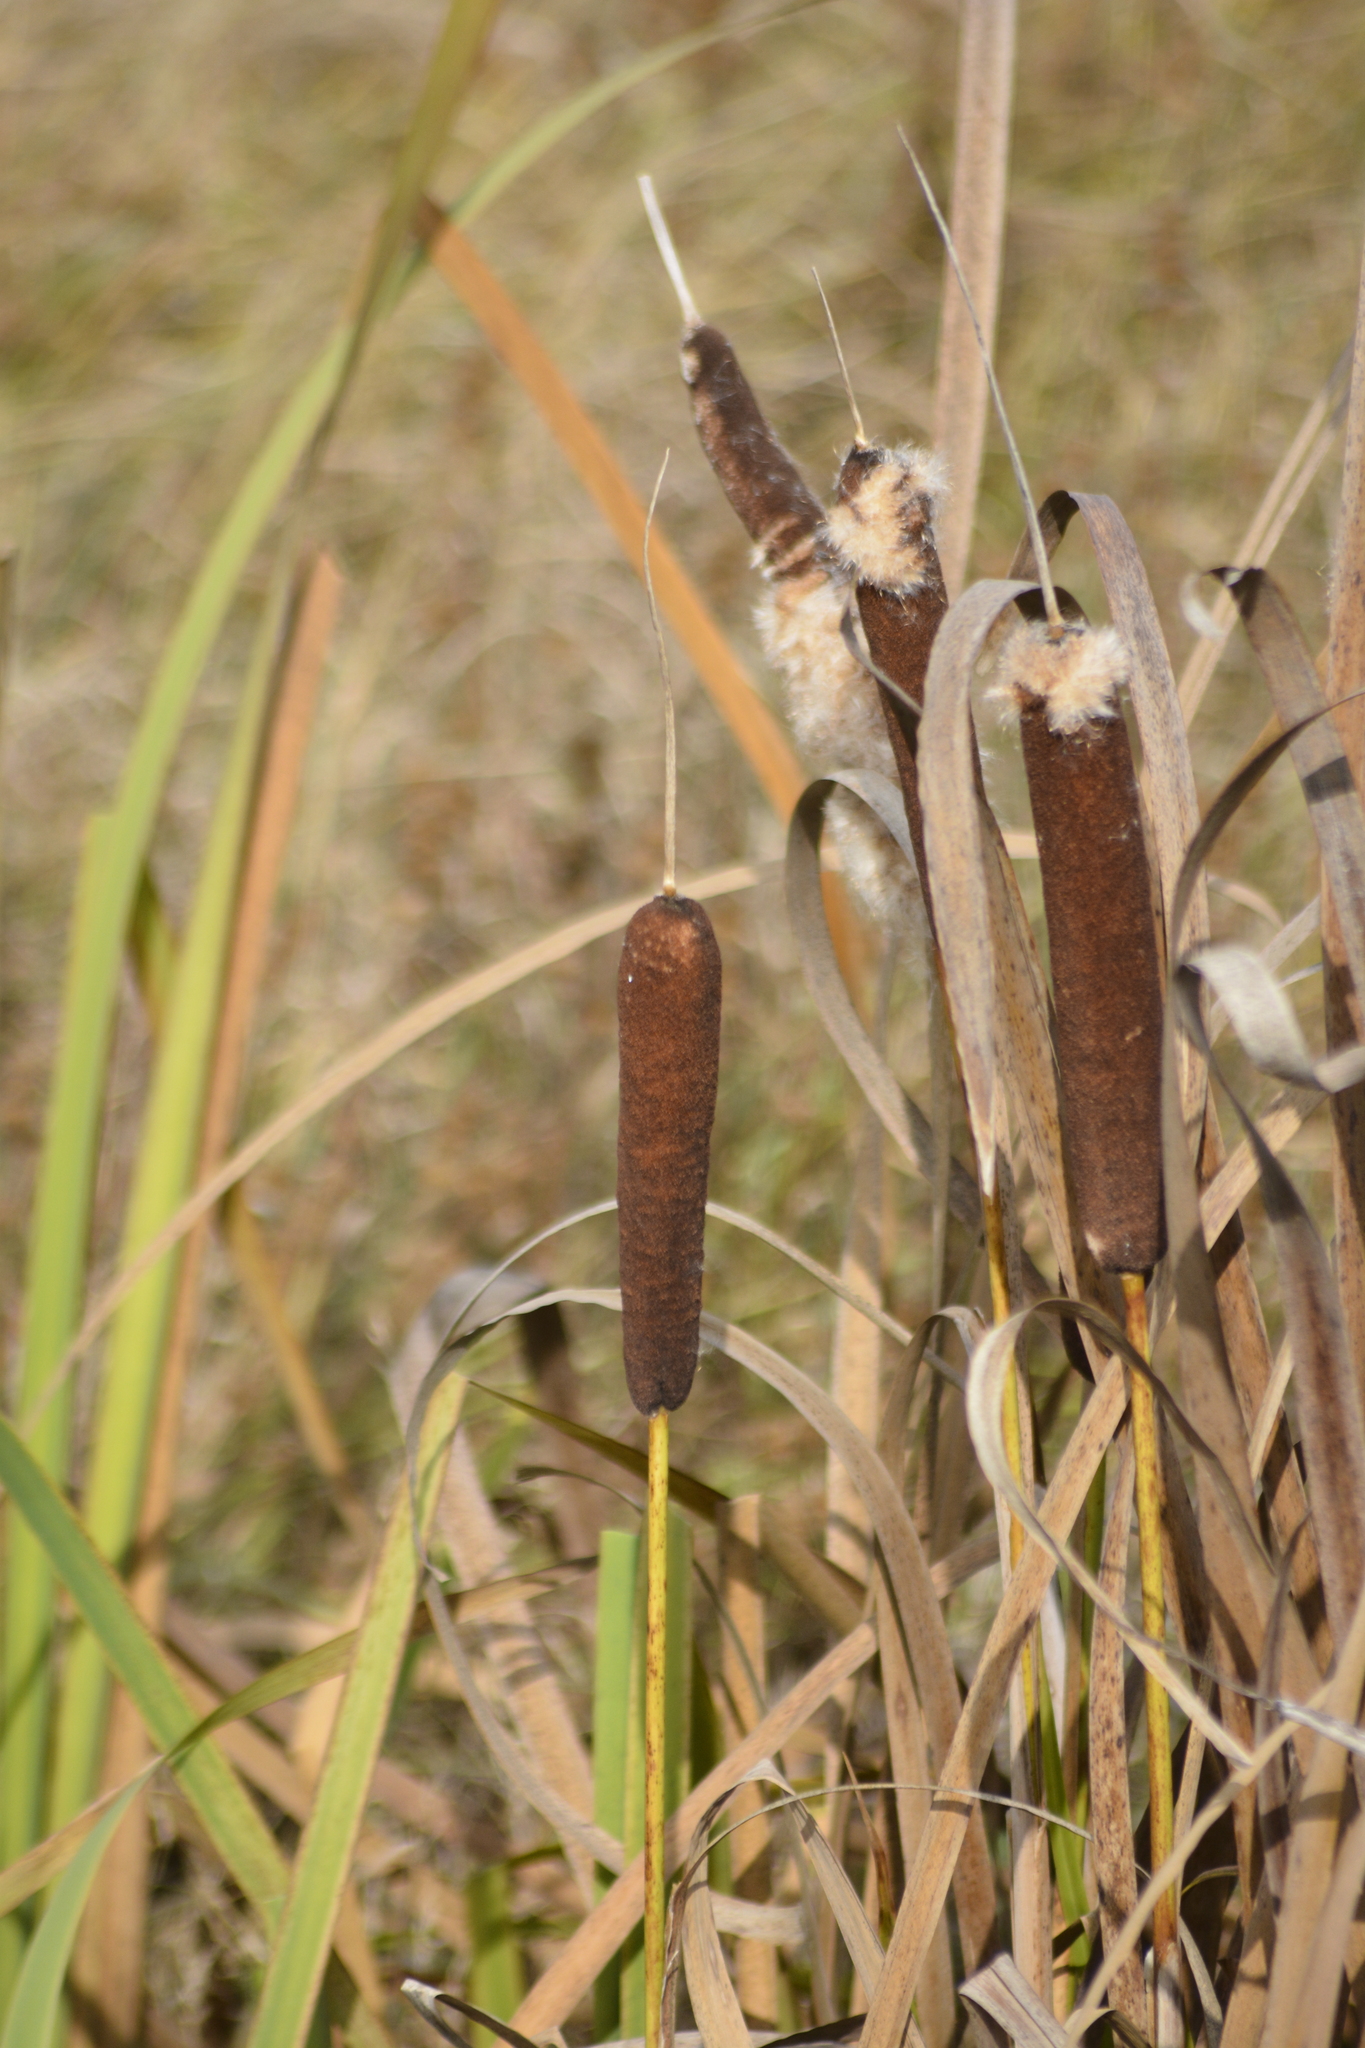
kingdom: Plantae
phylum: Tracheophyta
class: Liliopsida
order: Poales
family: Typhaceae
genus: Typha
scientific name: Typha latifolia
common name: Broadleaf cattail
